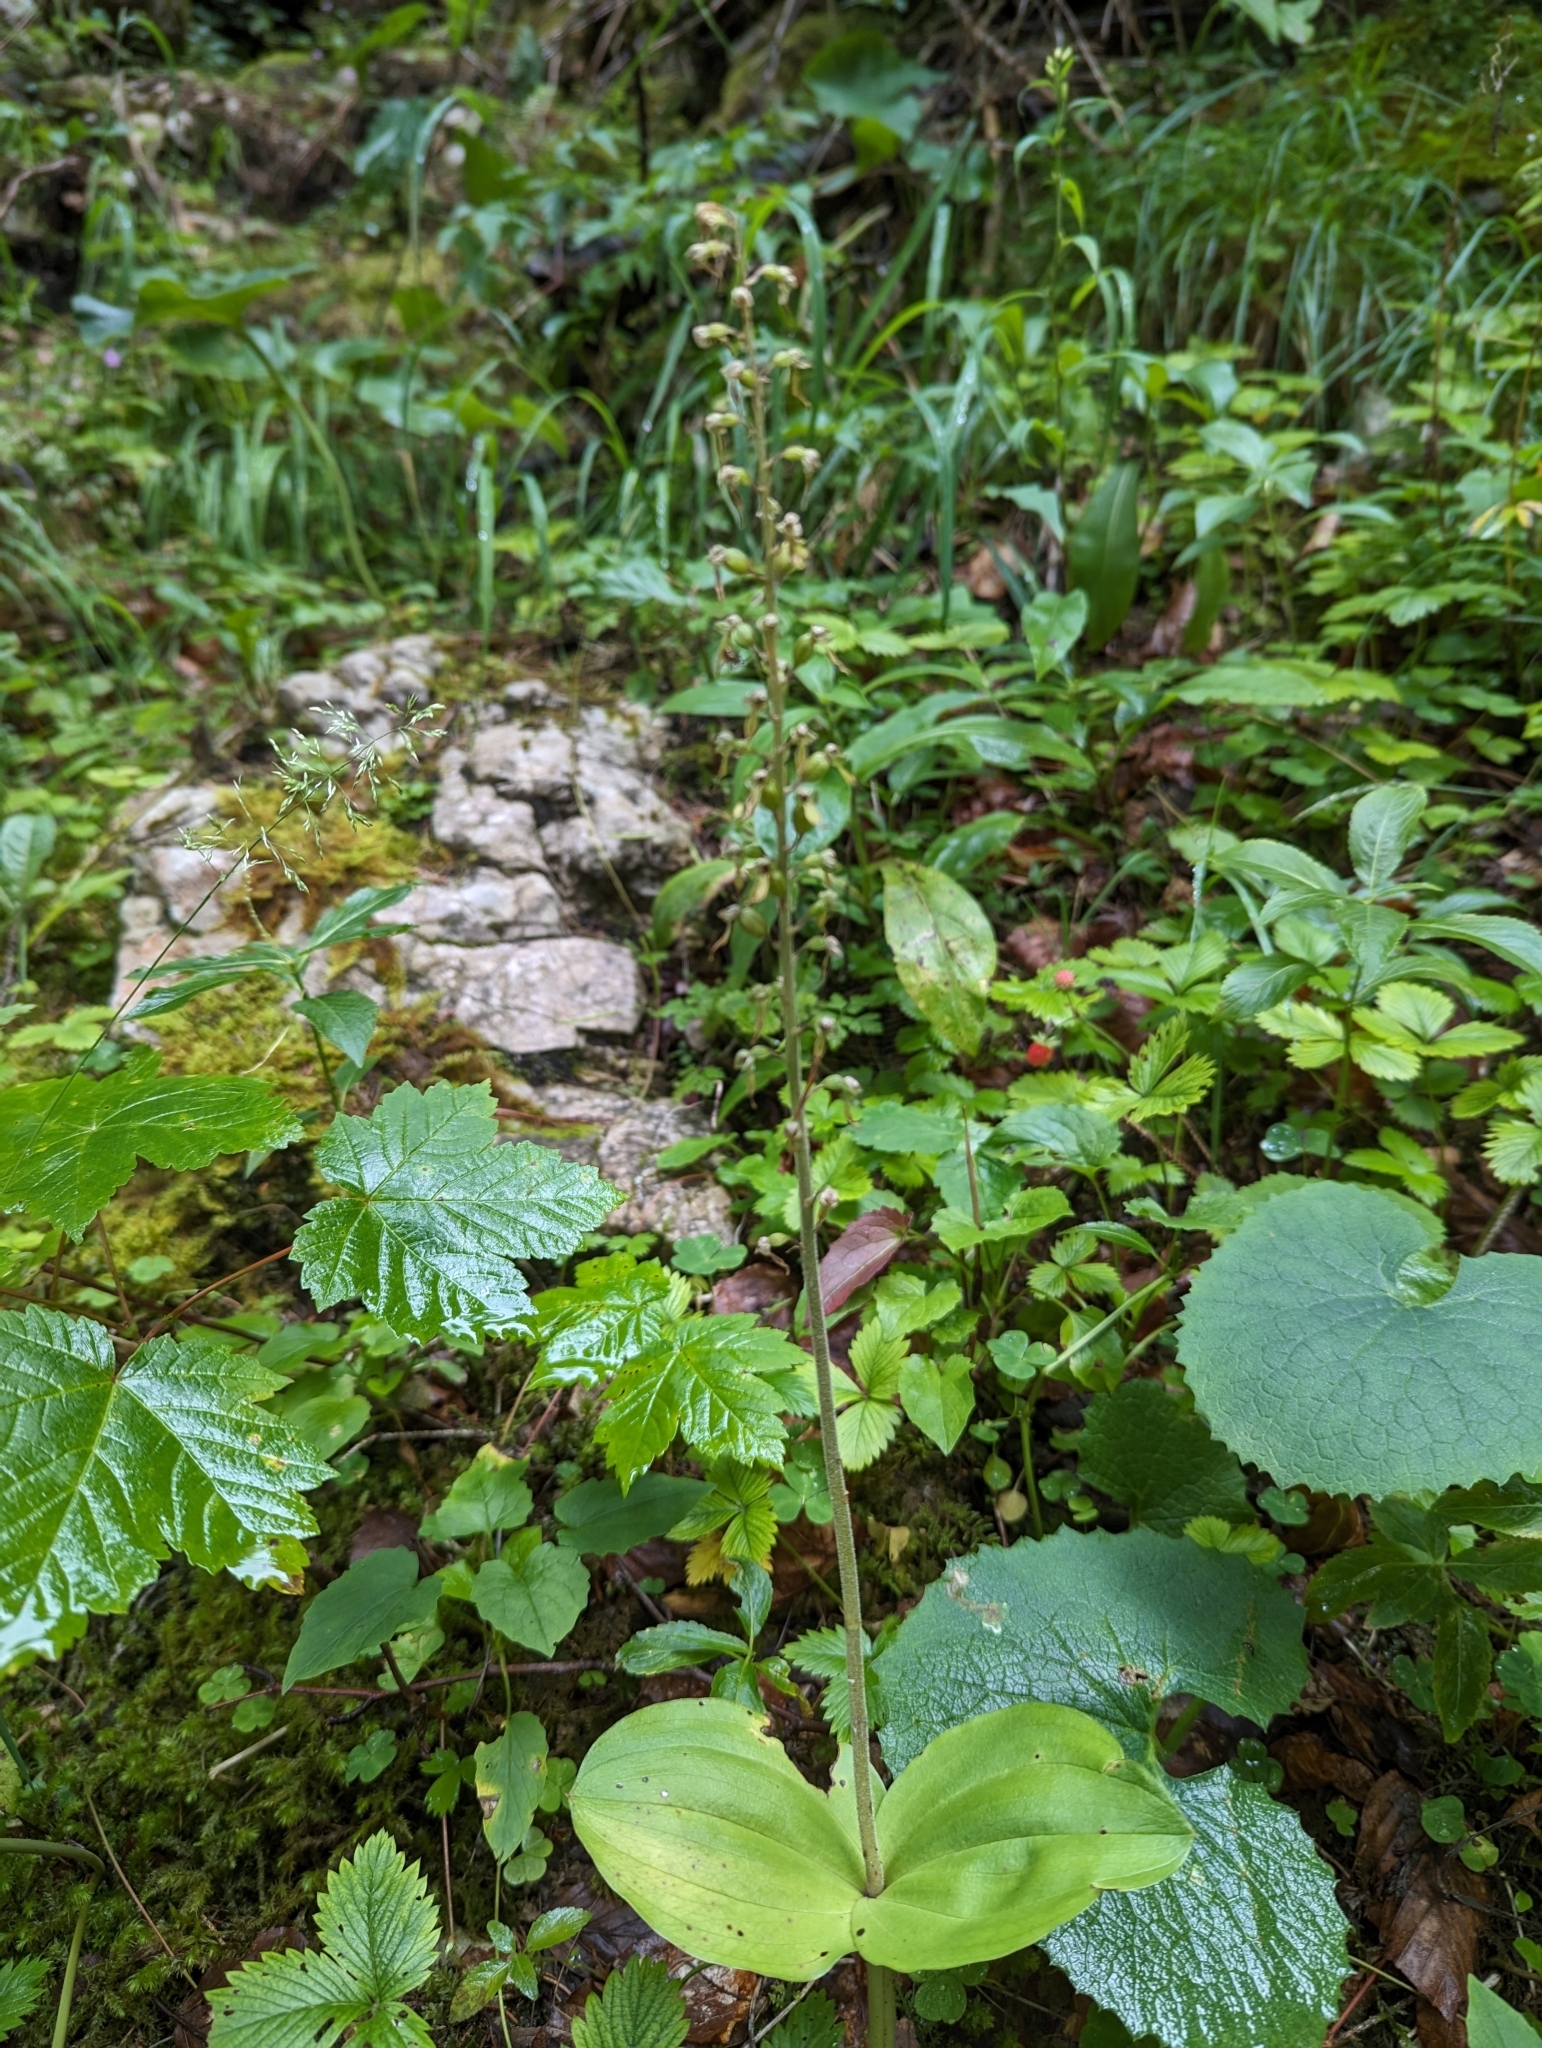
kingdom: Plantae
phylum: Tracheophyta
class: Liliopsida
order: Asparagales
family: Orchidaceae
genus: Neottia
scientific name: Neottia ovata
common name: Common twayblade
